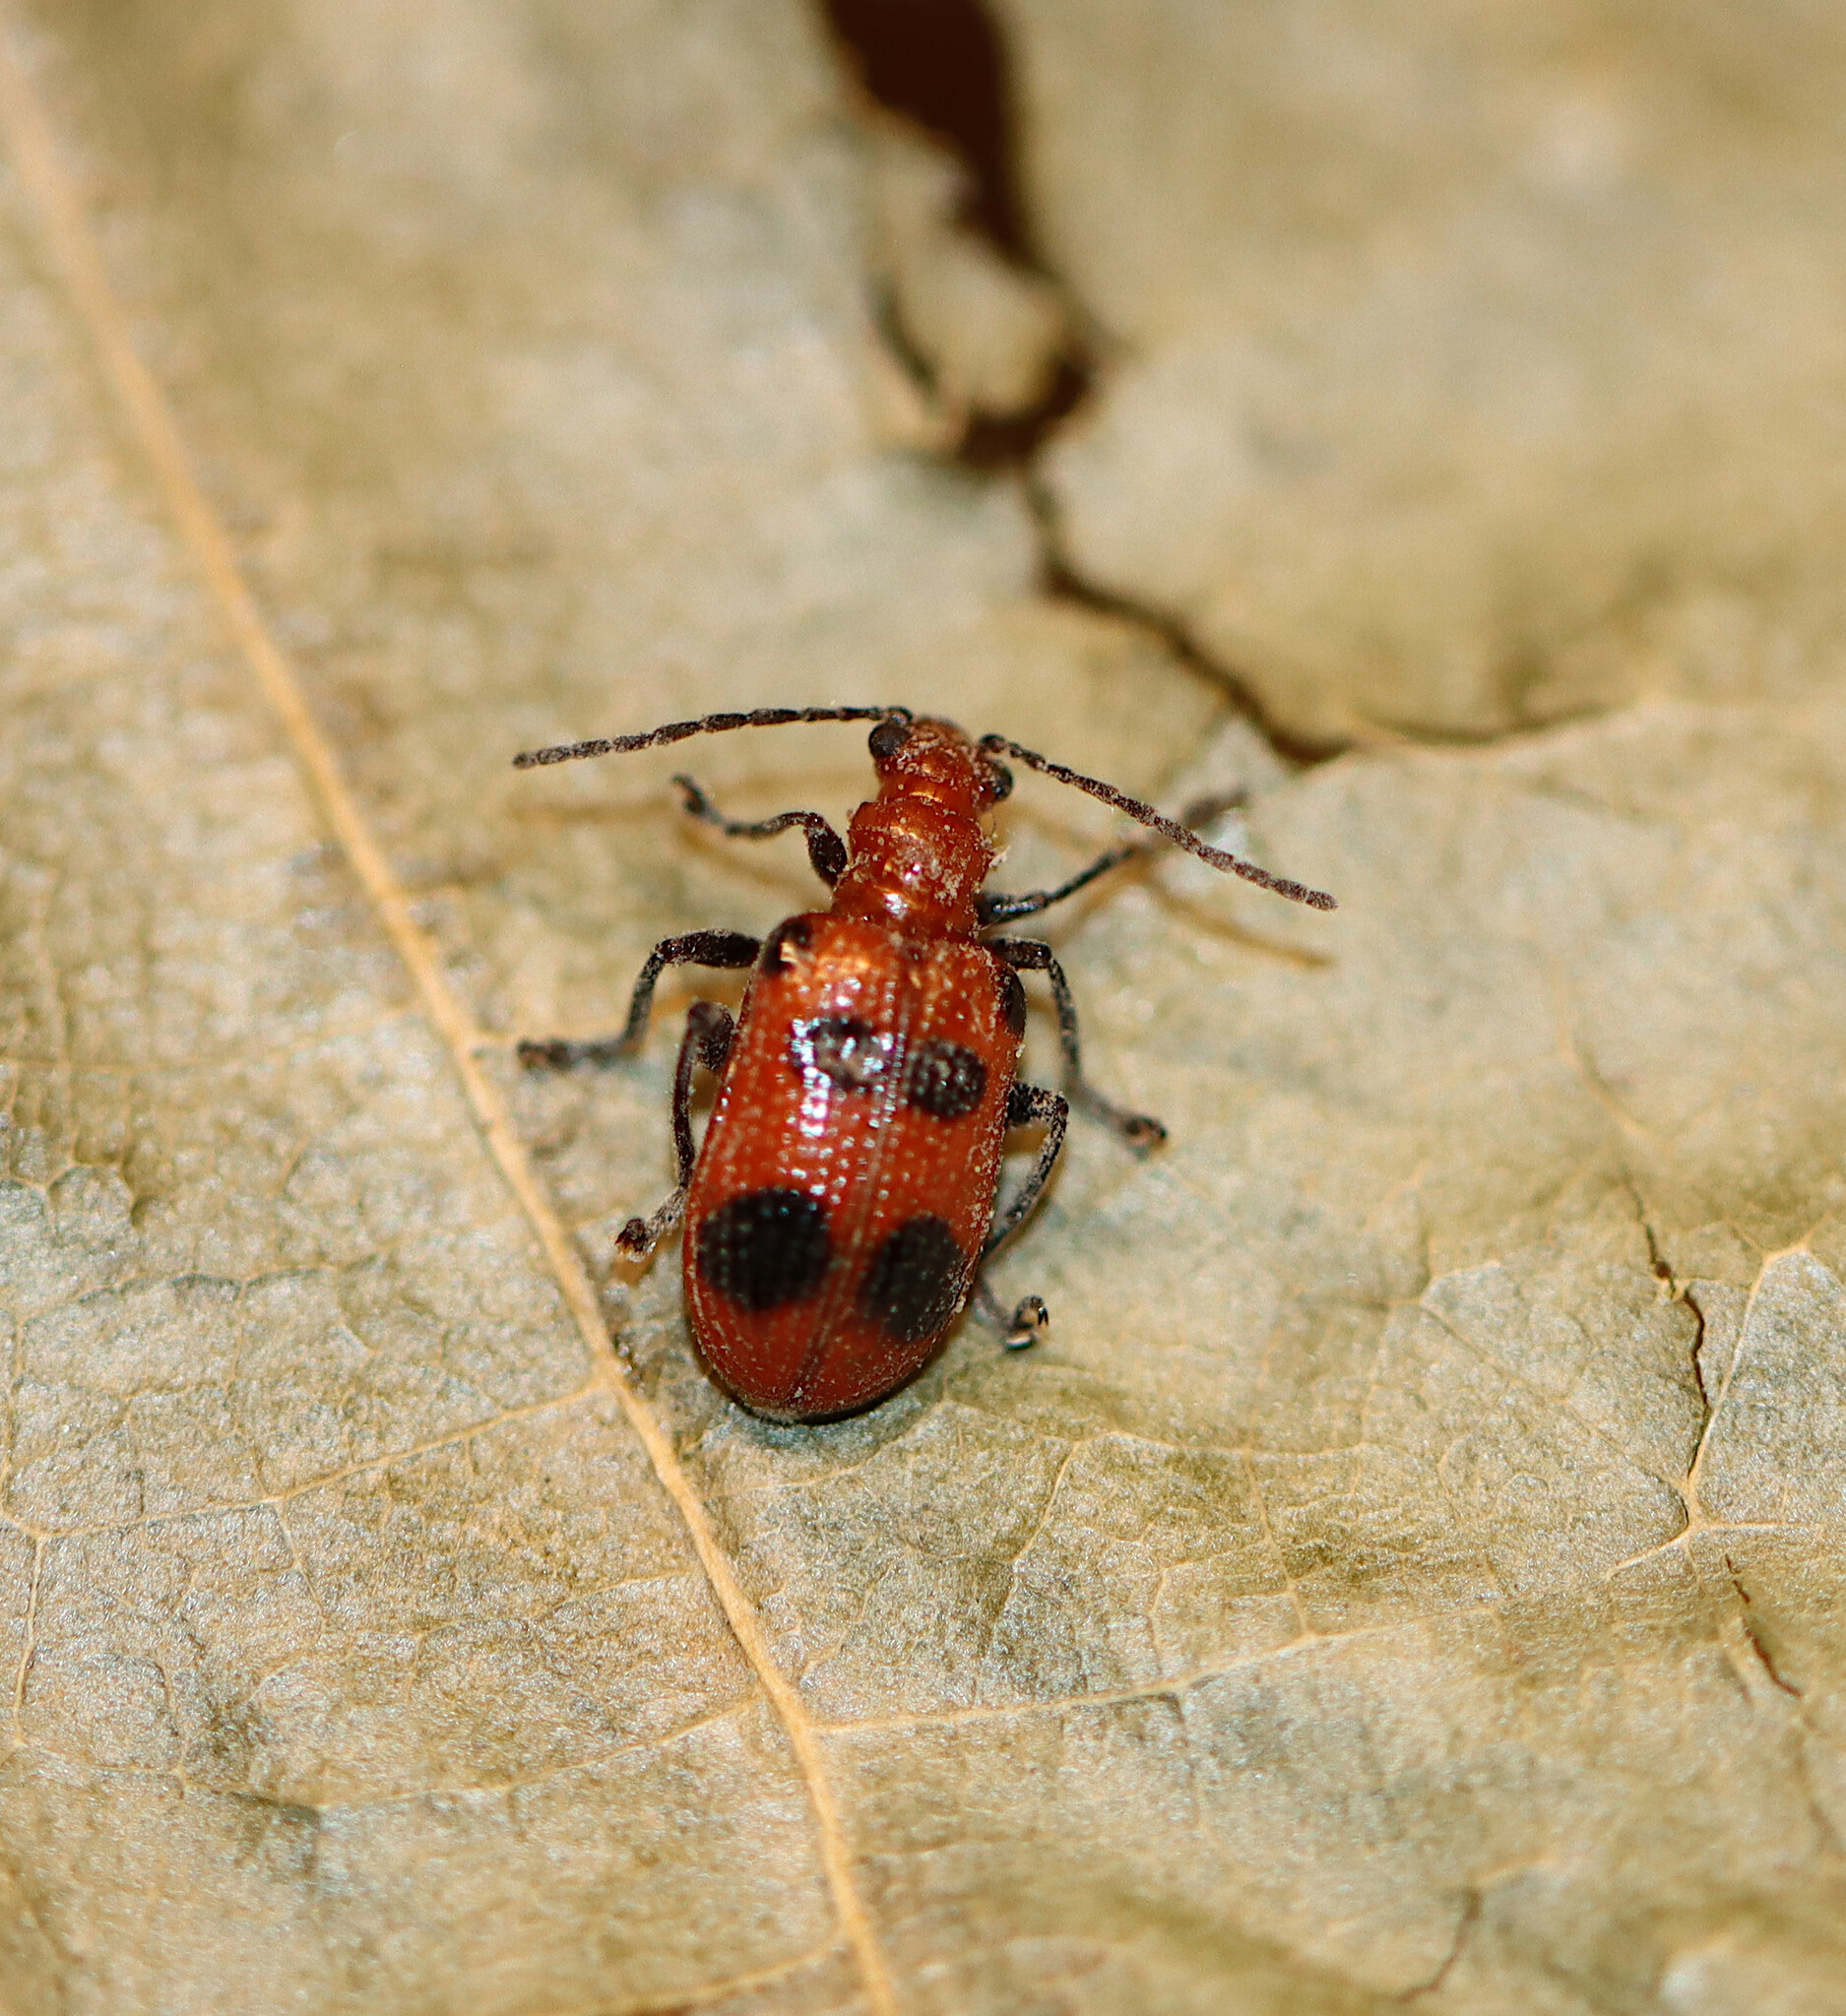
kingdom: Animalia
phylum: Arthropoda
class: Insecta
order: Coleoptera
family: Chrysomelidae
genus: Neolema
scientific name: Neolema sexpunctata
